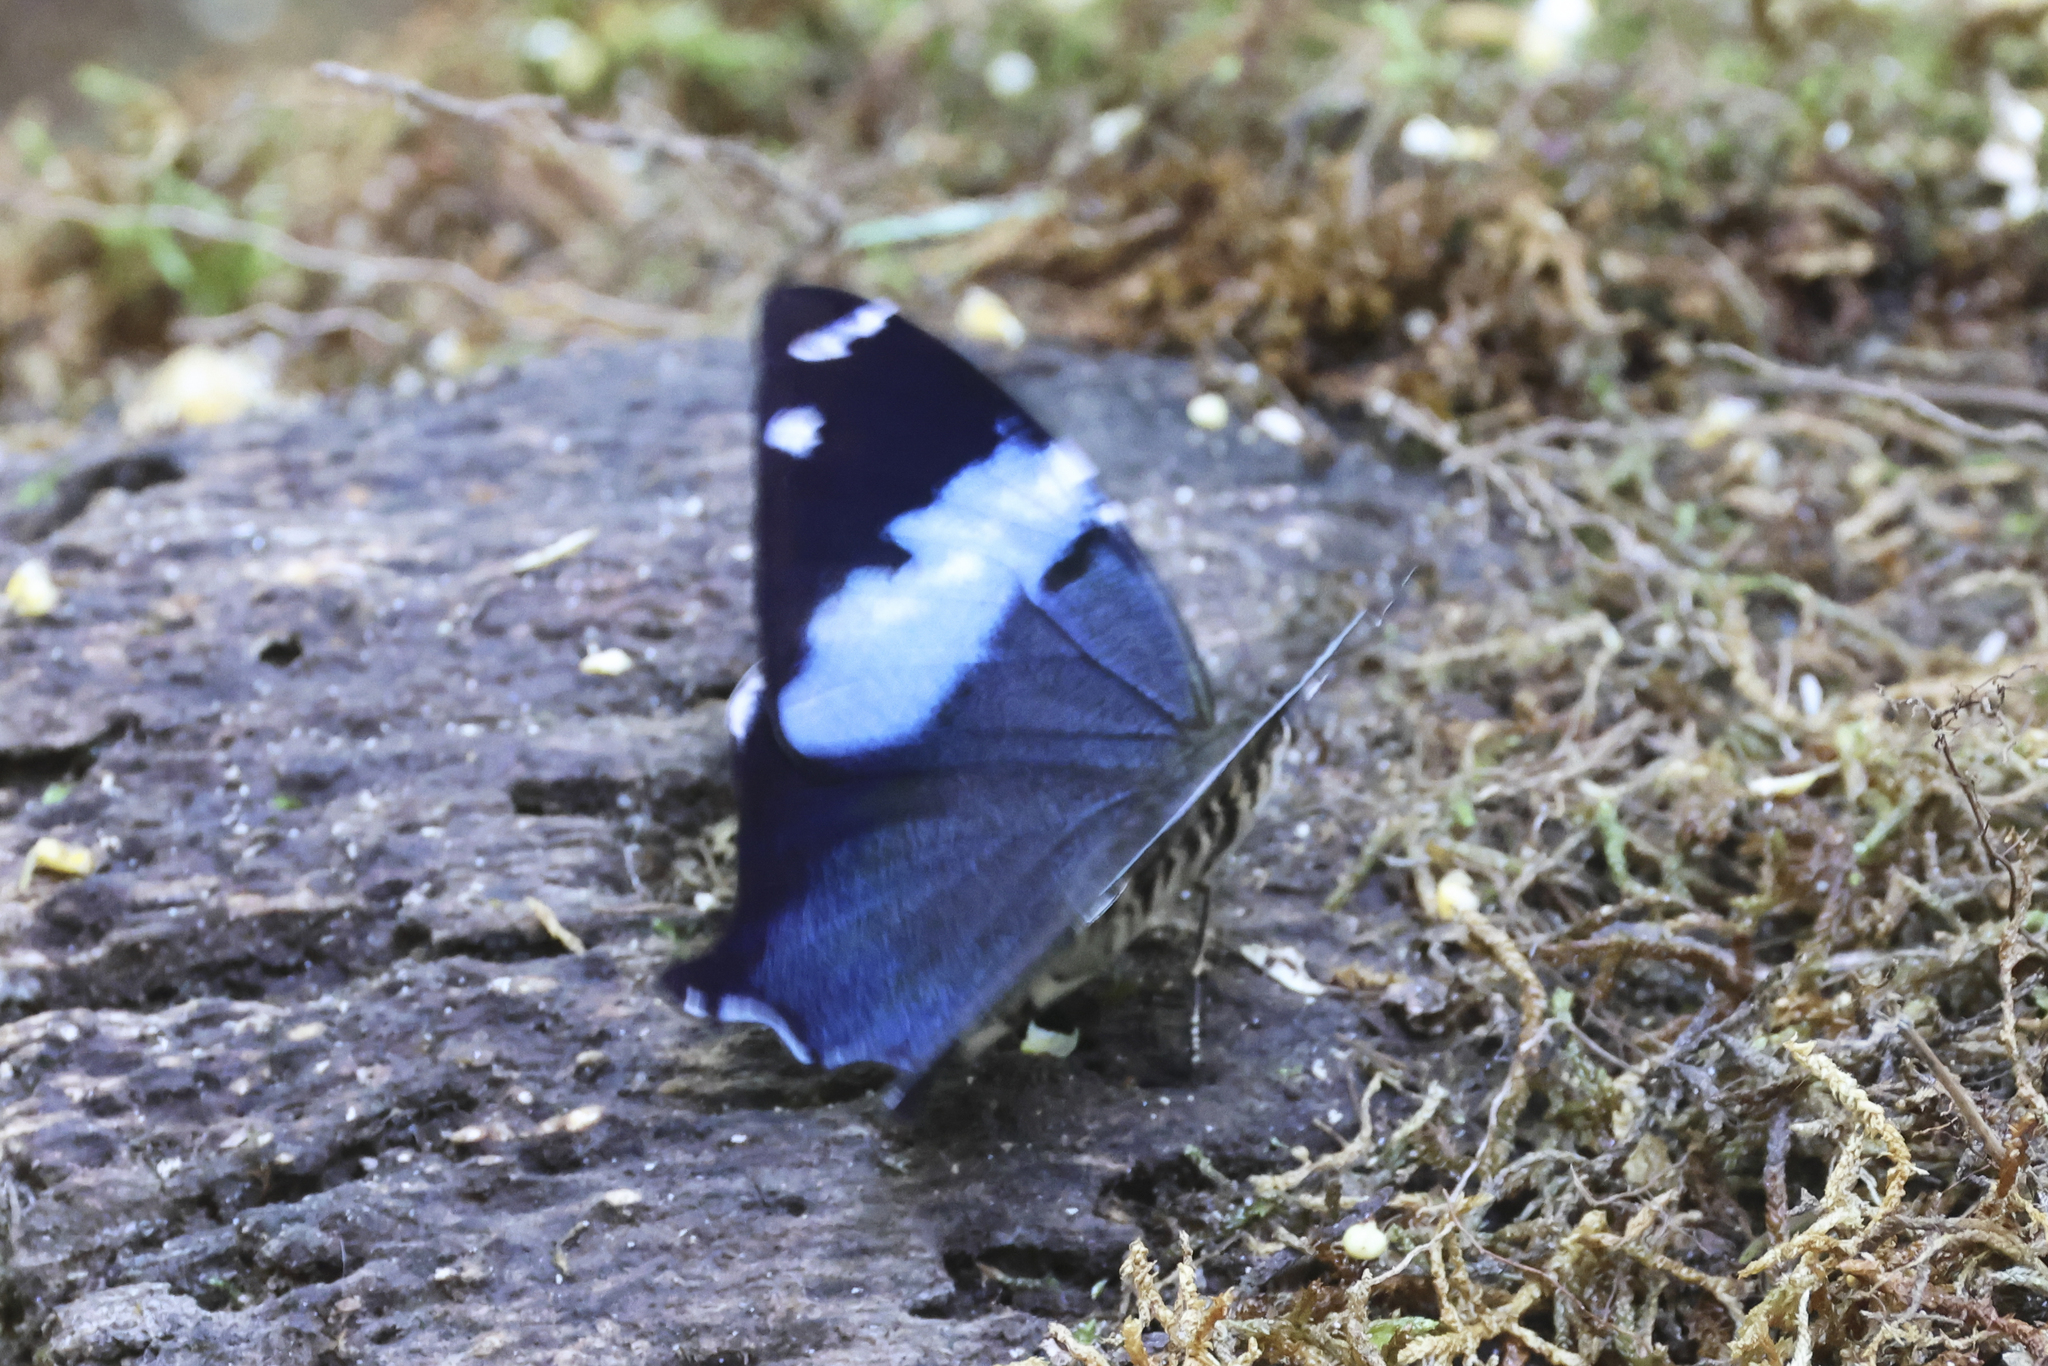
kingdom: Animalia
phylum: Arthropoda
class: Insecta
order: Lepidoptera
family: Nymphalidae
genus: Prothoe
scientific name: Prothoe franck
